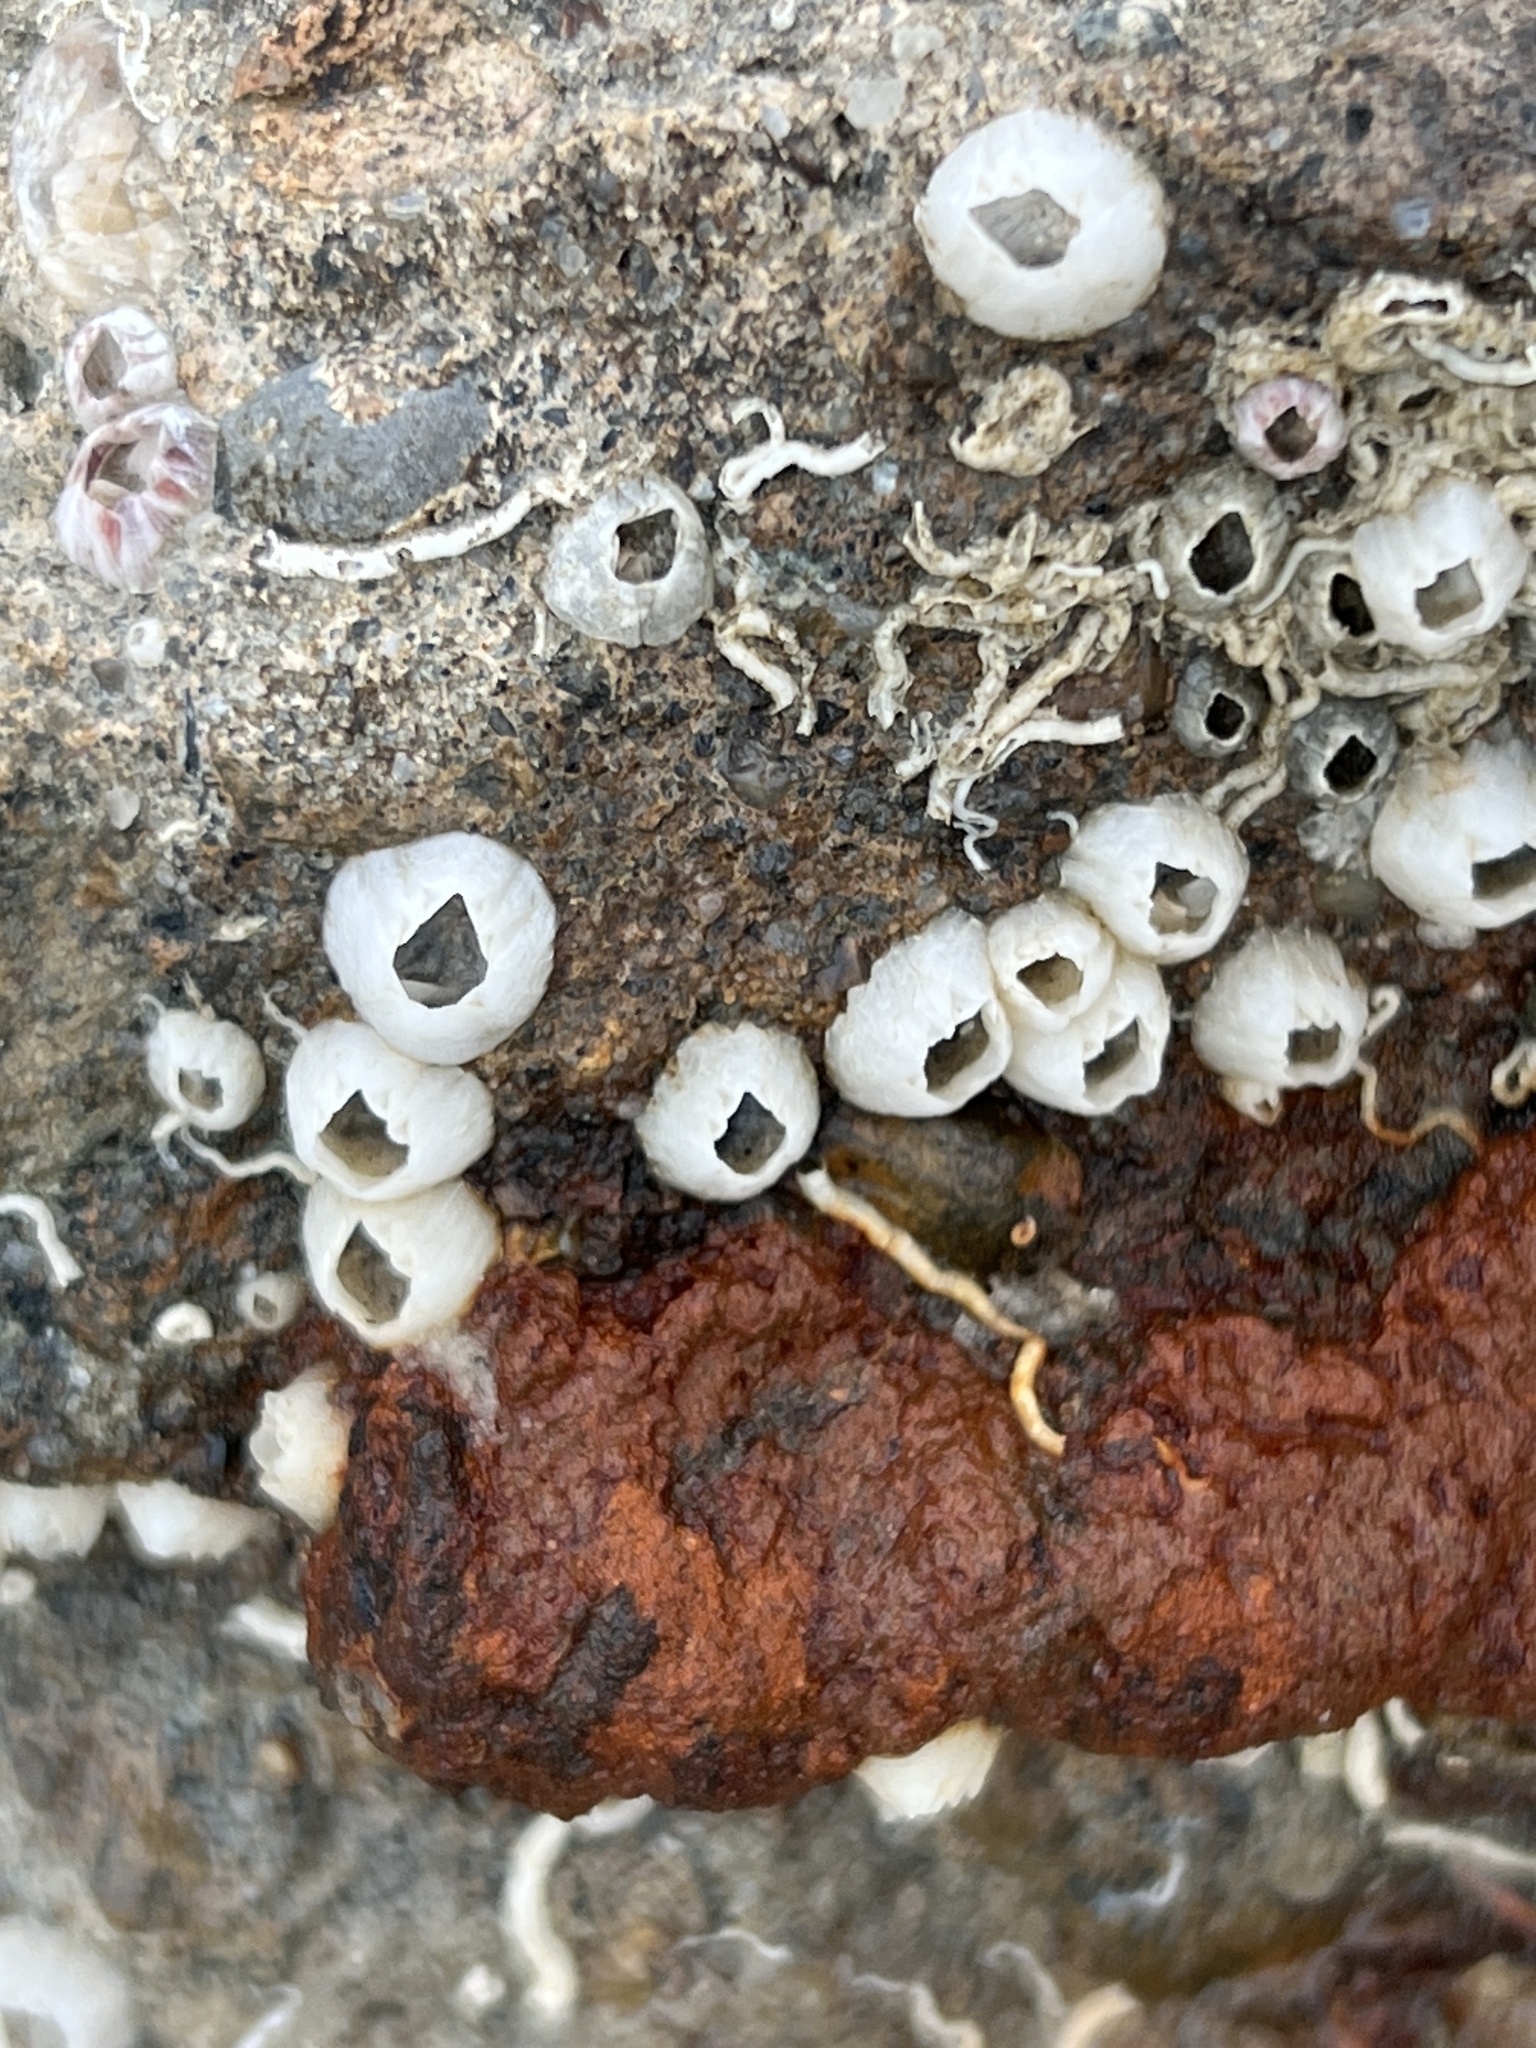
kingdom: Animalia
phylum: Arthropoda
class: Maxillopoda
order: Sessilia
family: Balanidae
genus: Amphibalanus
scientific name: Amphibalanus improvisus
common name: Bay barnacle
